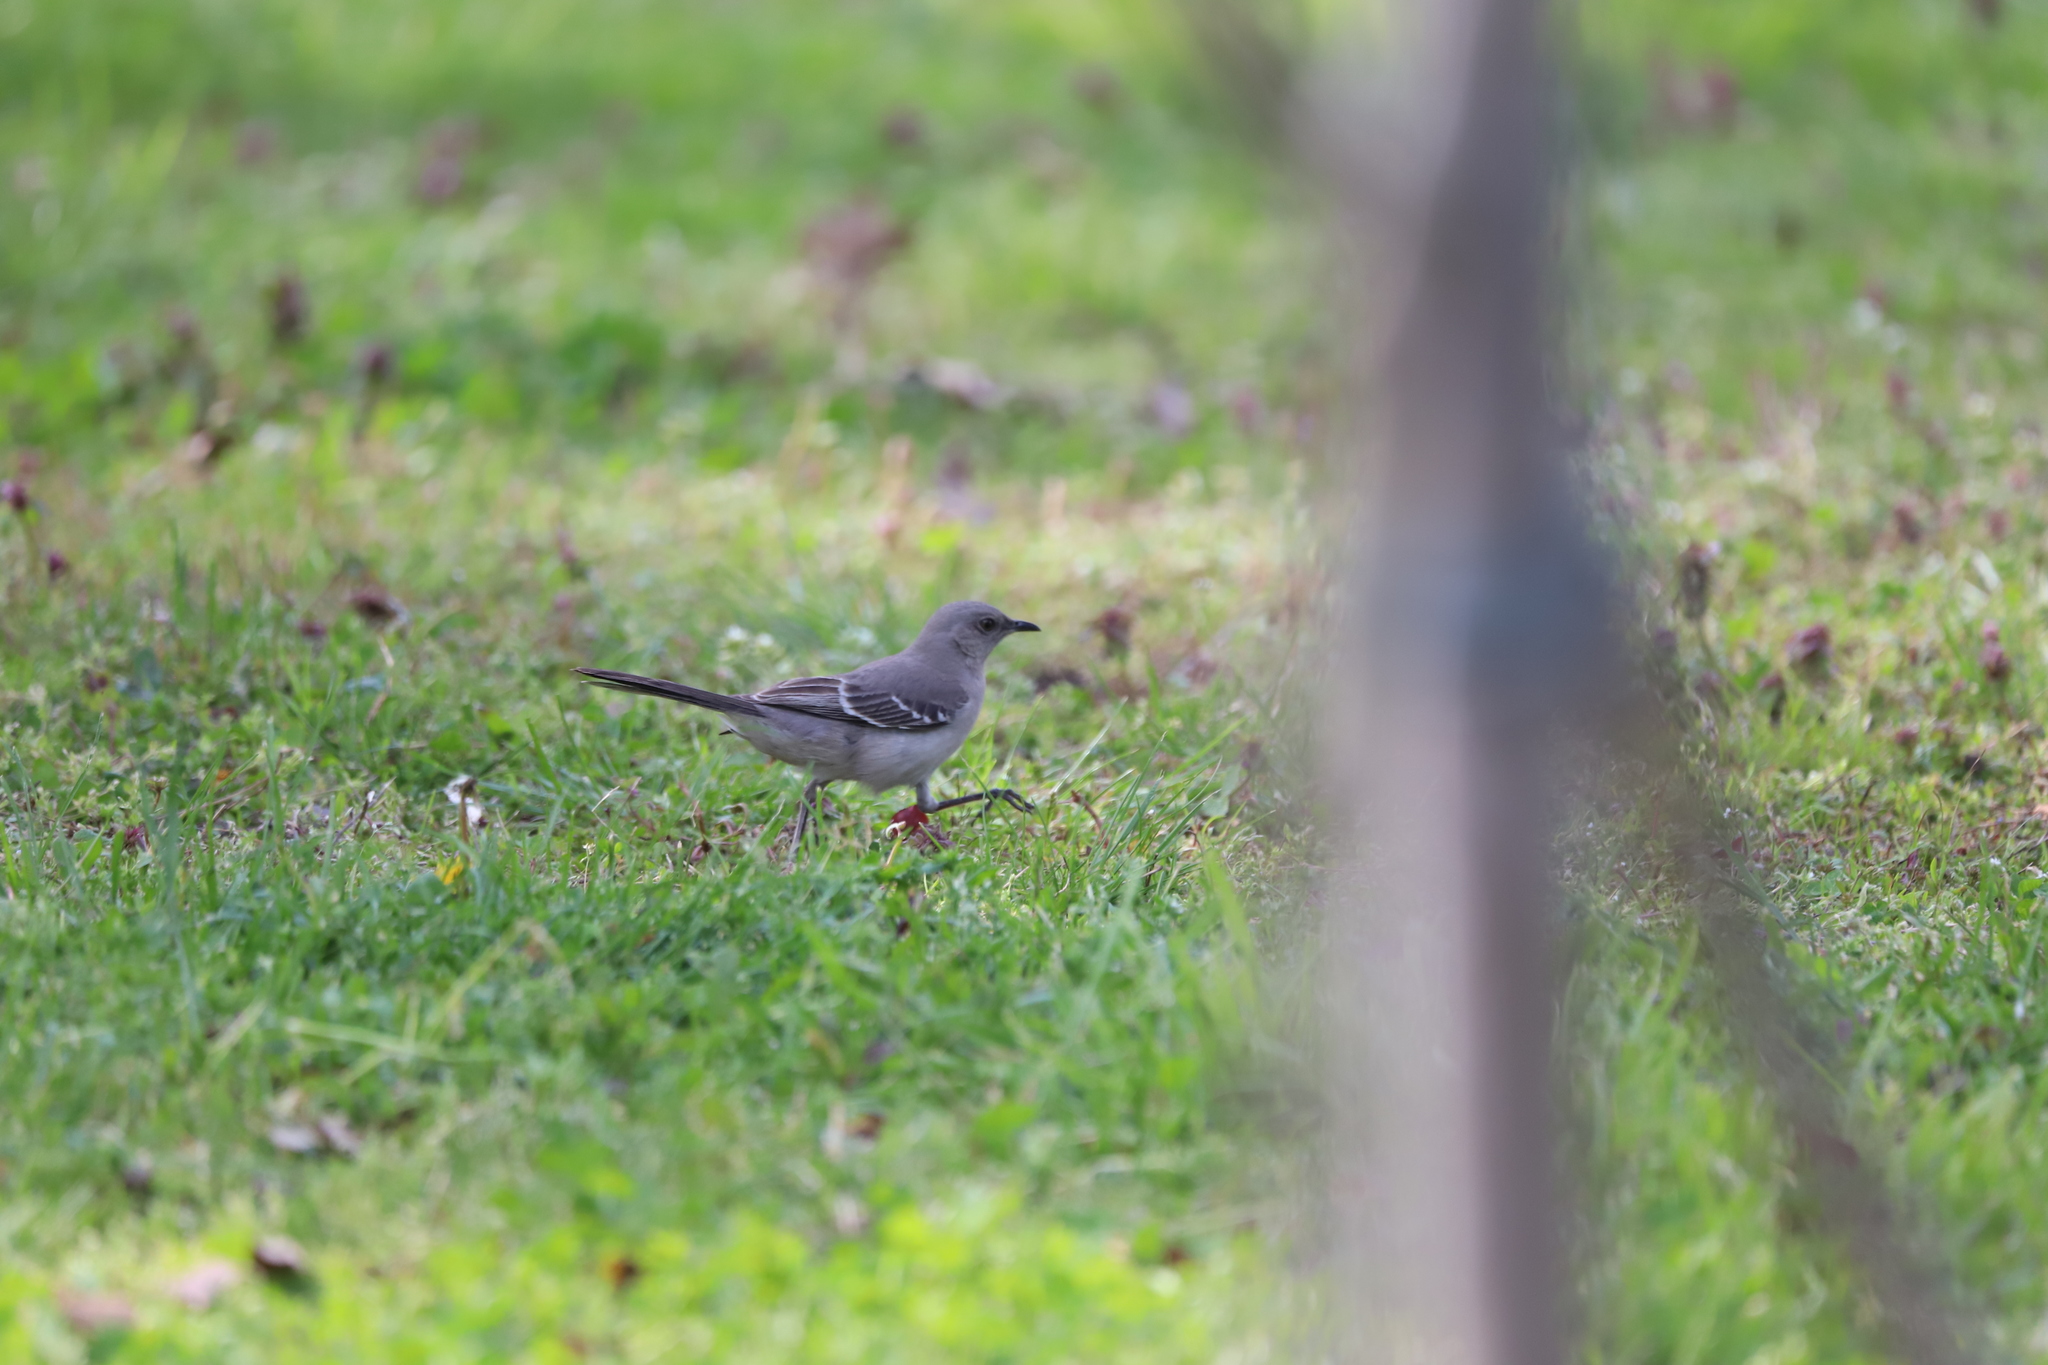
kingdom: Animalia
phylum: Chordata
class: Aves
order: Passeriformes
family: Mimidae
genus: Mimus
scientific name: Mimus polyglottos
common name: Northern mockingbird
